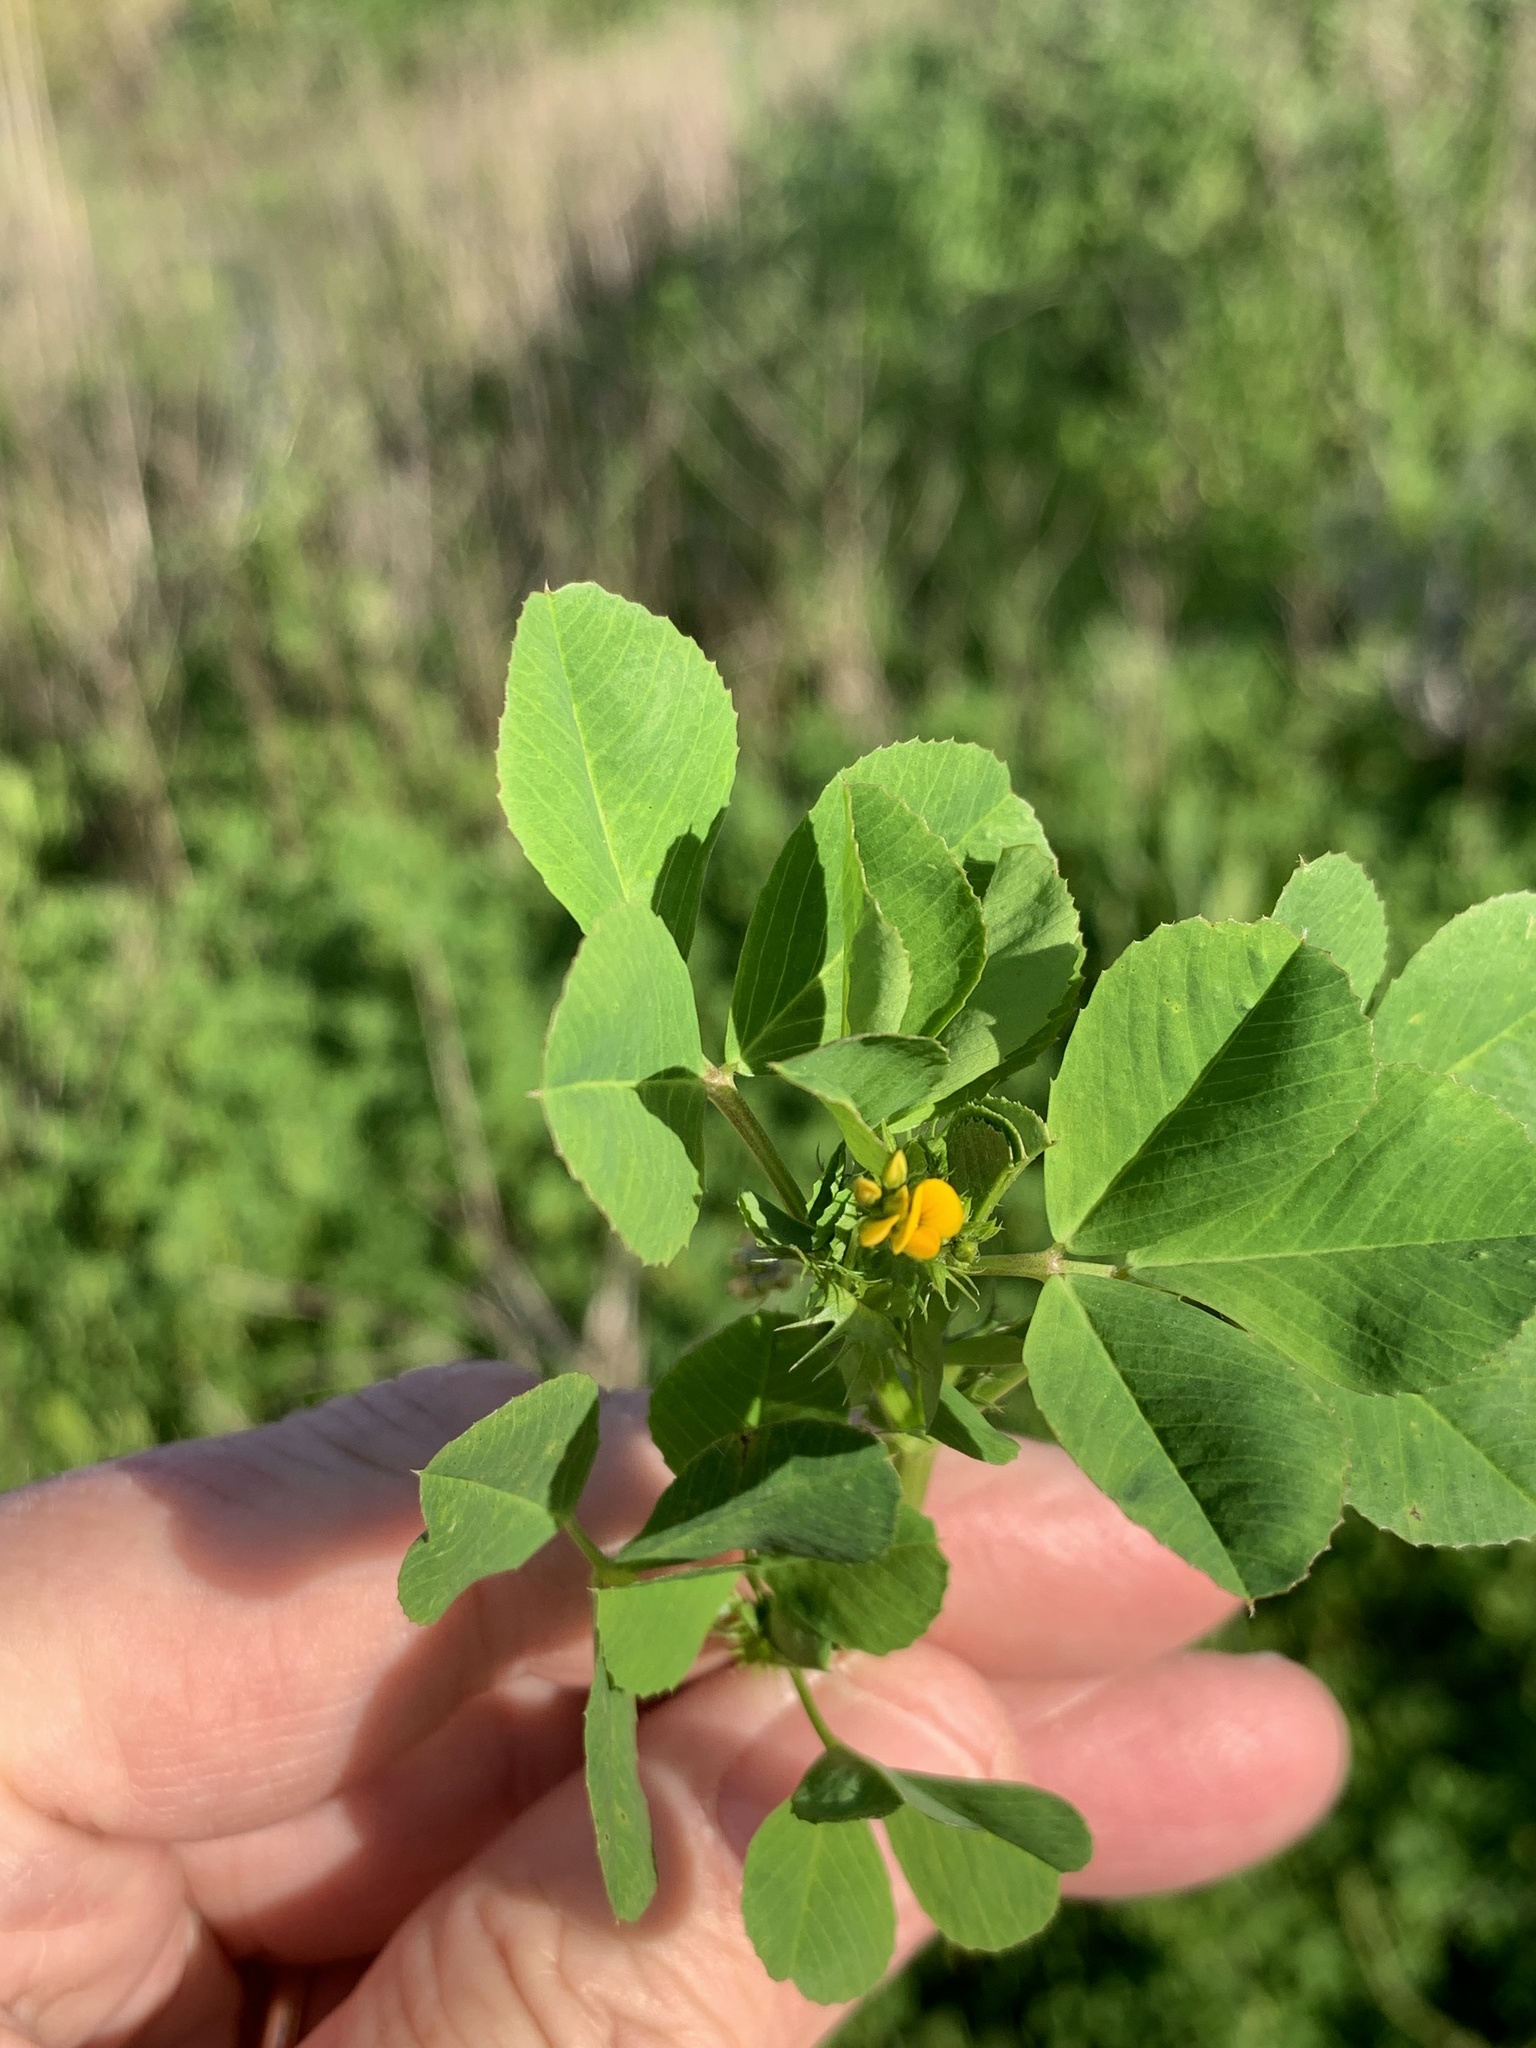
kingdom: Plantae
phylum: Tracheophyta
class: Magnoliopsida
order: Fabales
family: Fabaceae
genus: Medicago
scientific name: Medicago polymorpha
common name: Burclover
